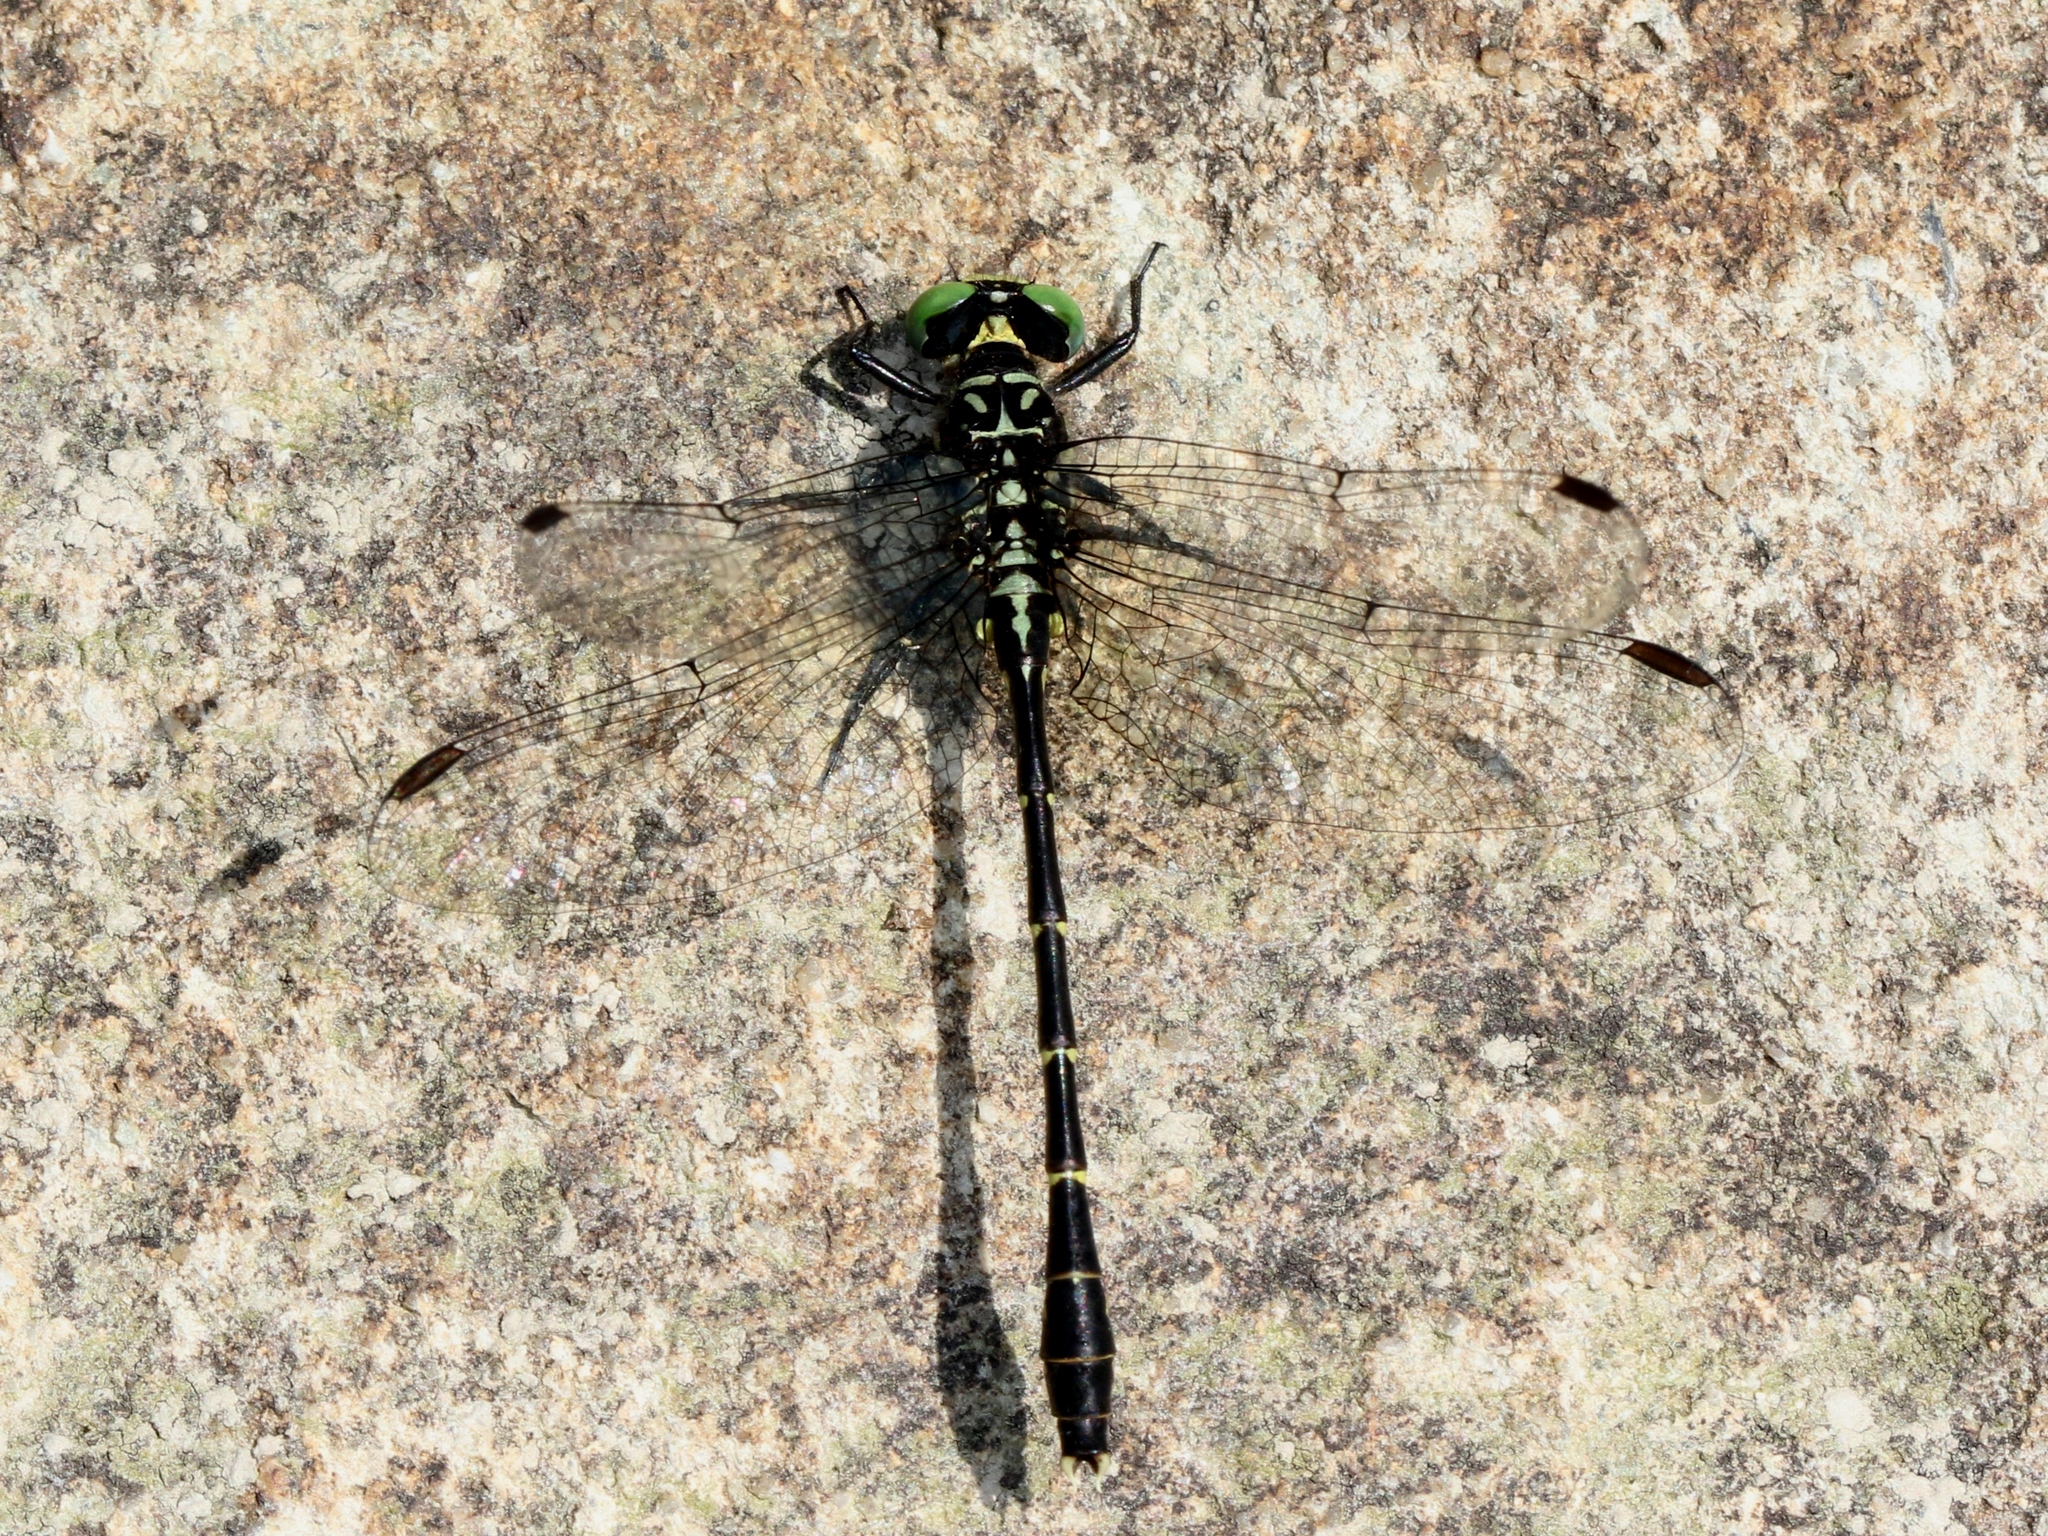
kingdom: Animalia
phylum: Arthropoda
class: Insecta
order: Odonata
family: Gomphidae
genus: Stylogomphus
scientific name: Stylogomphus albistylus
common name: Eastern least clubtail
